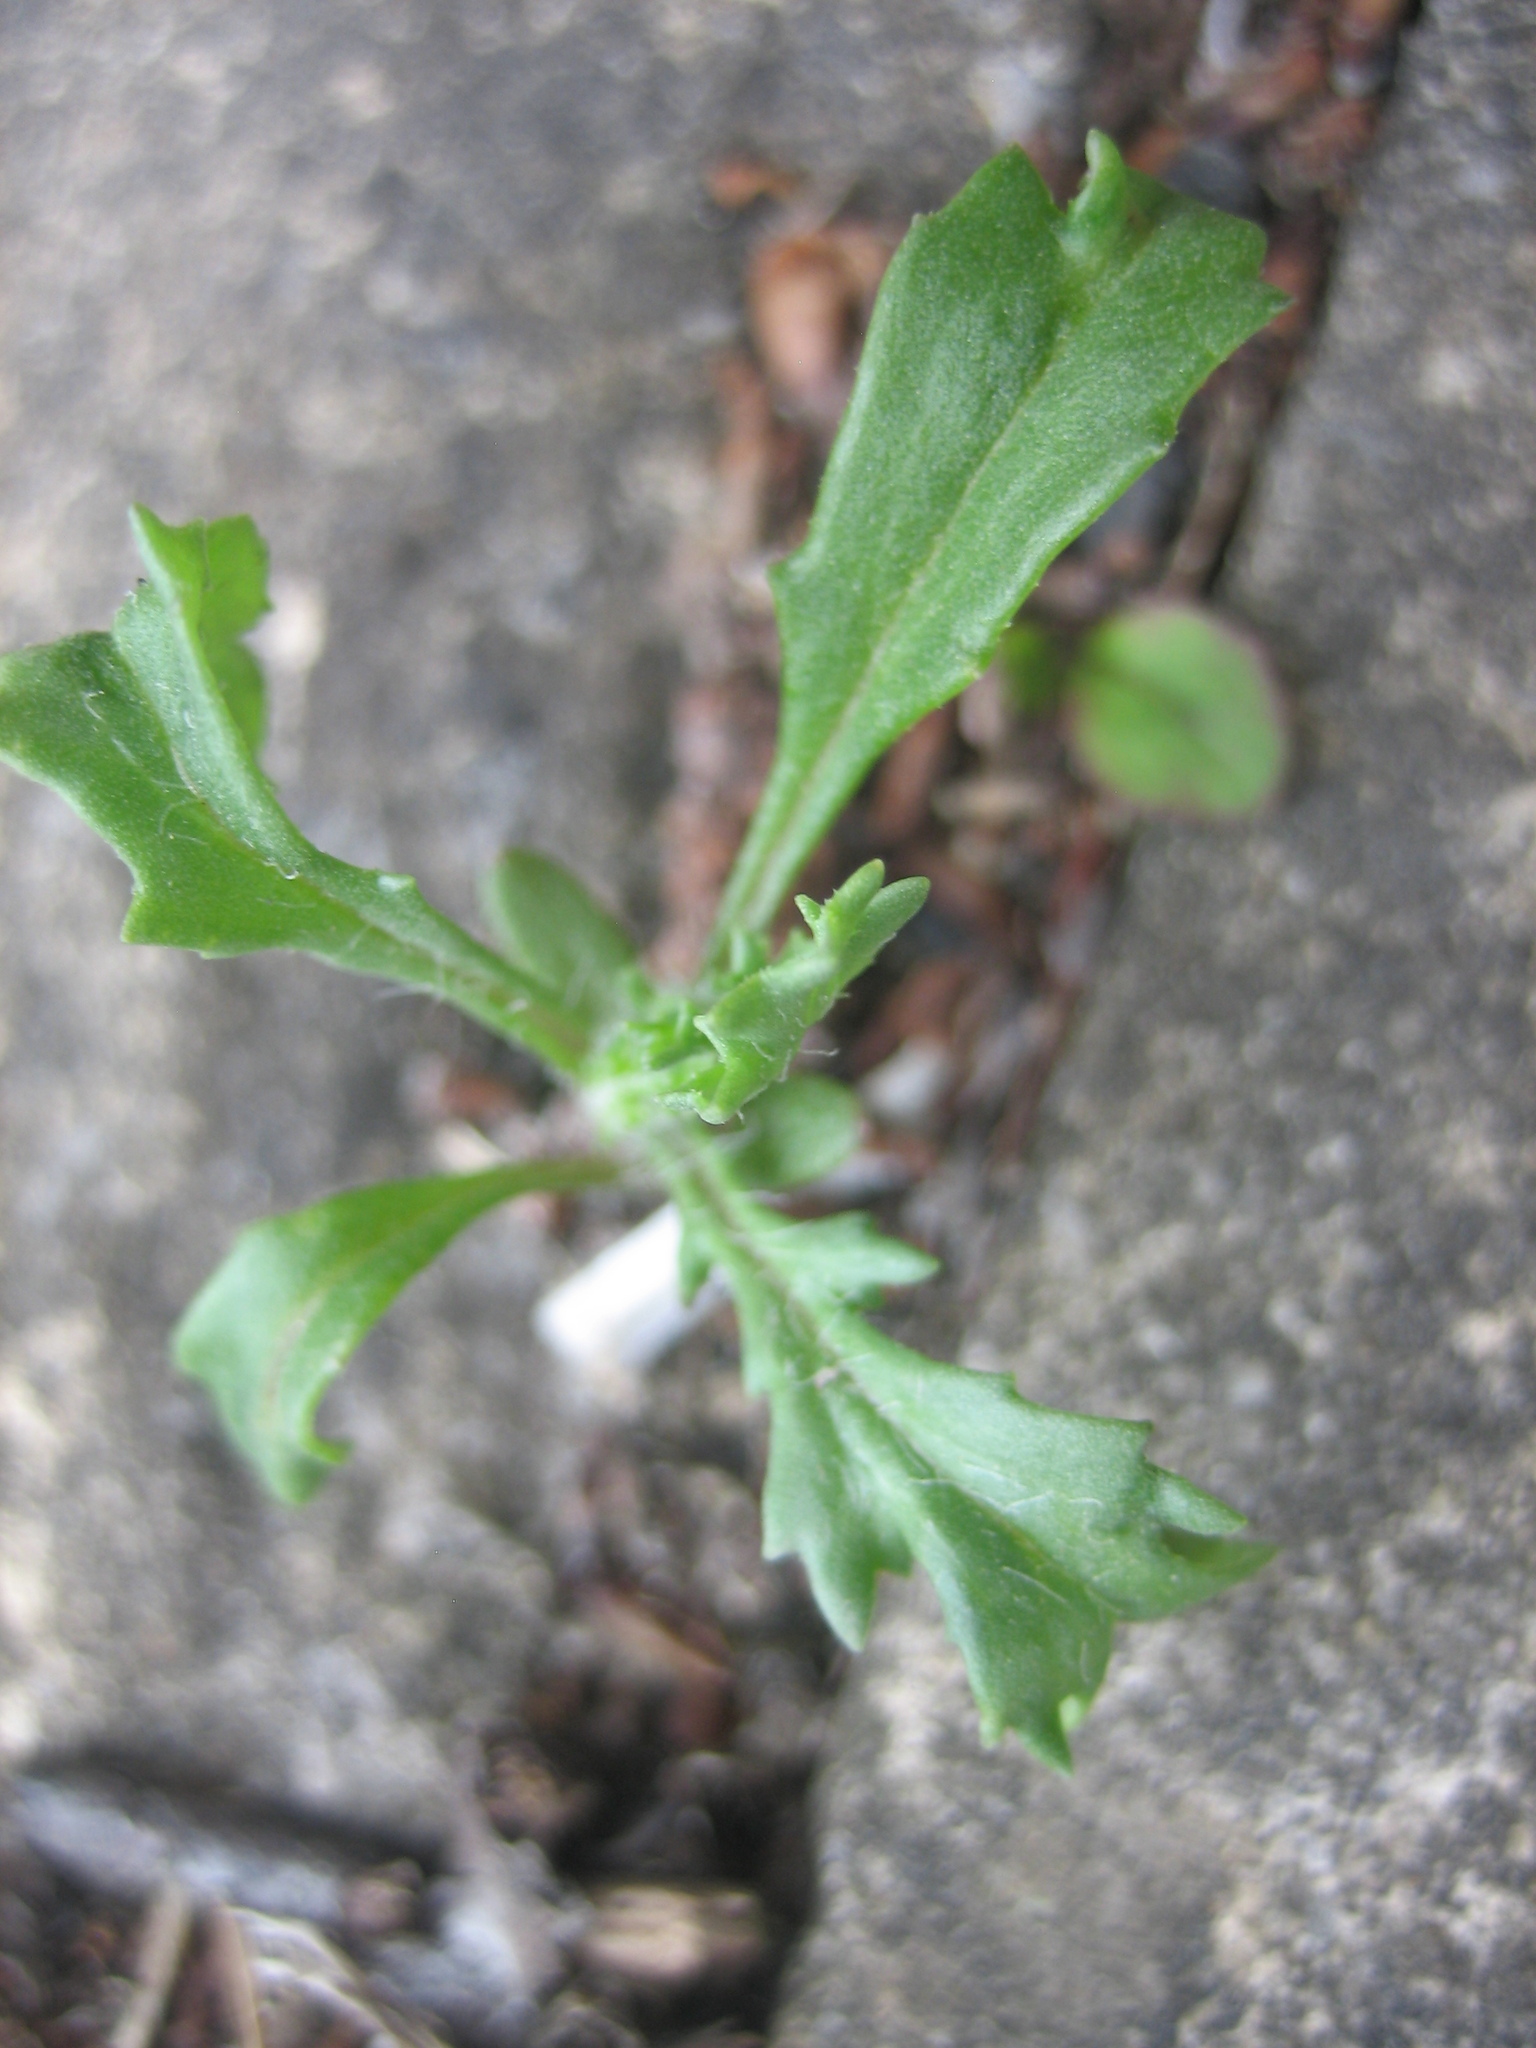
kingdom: Plantae
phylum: Tracheophyta
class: Magnoliopsida
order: Asterales
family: Asteraceae
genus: Senecio
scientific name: Senecio vulgaris
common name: Old-man-in-the-spring
